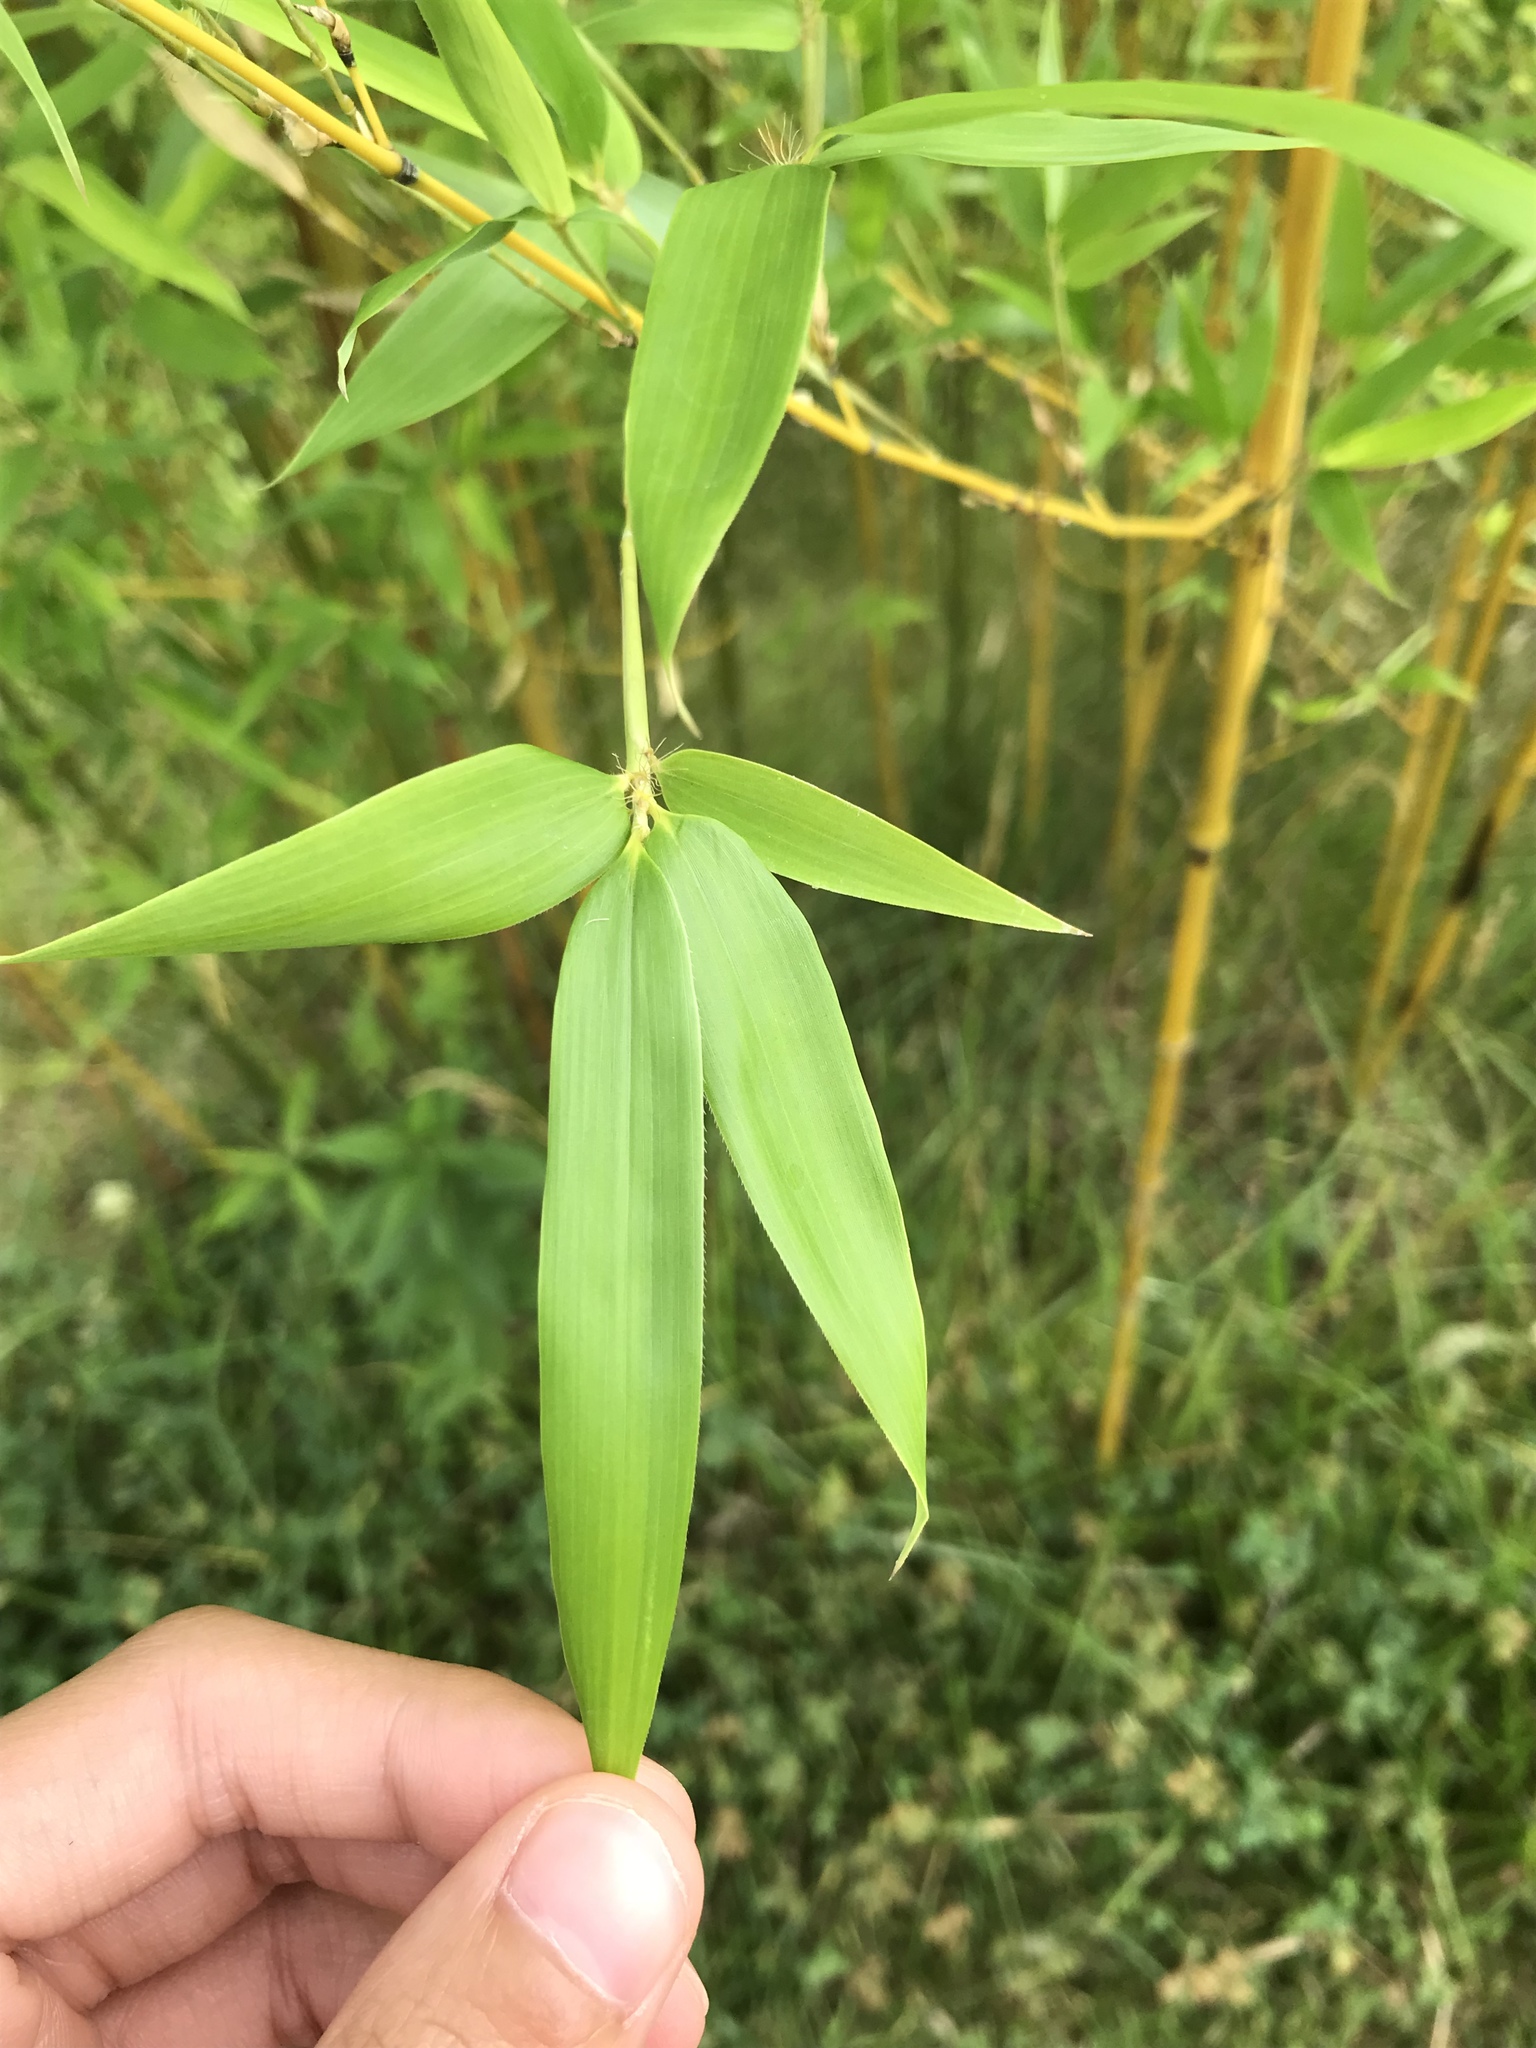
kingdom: Plantae
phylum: Tracheophyta
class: Liliopsida
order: Poales
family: Poaceae
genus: Phyllostachys
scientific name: Phyllostachys aurea
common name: Golden bamboo
